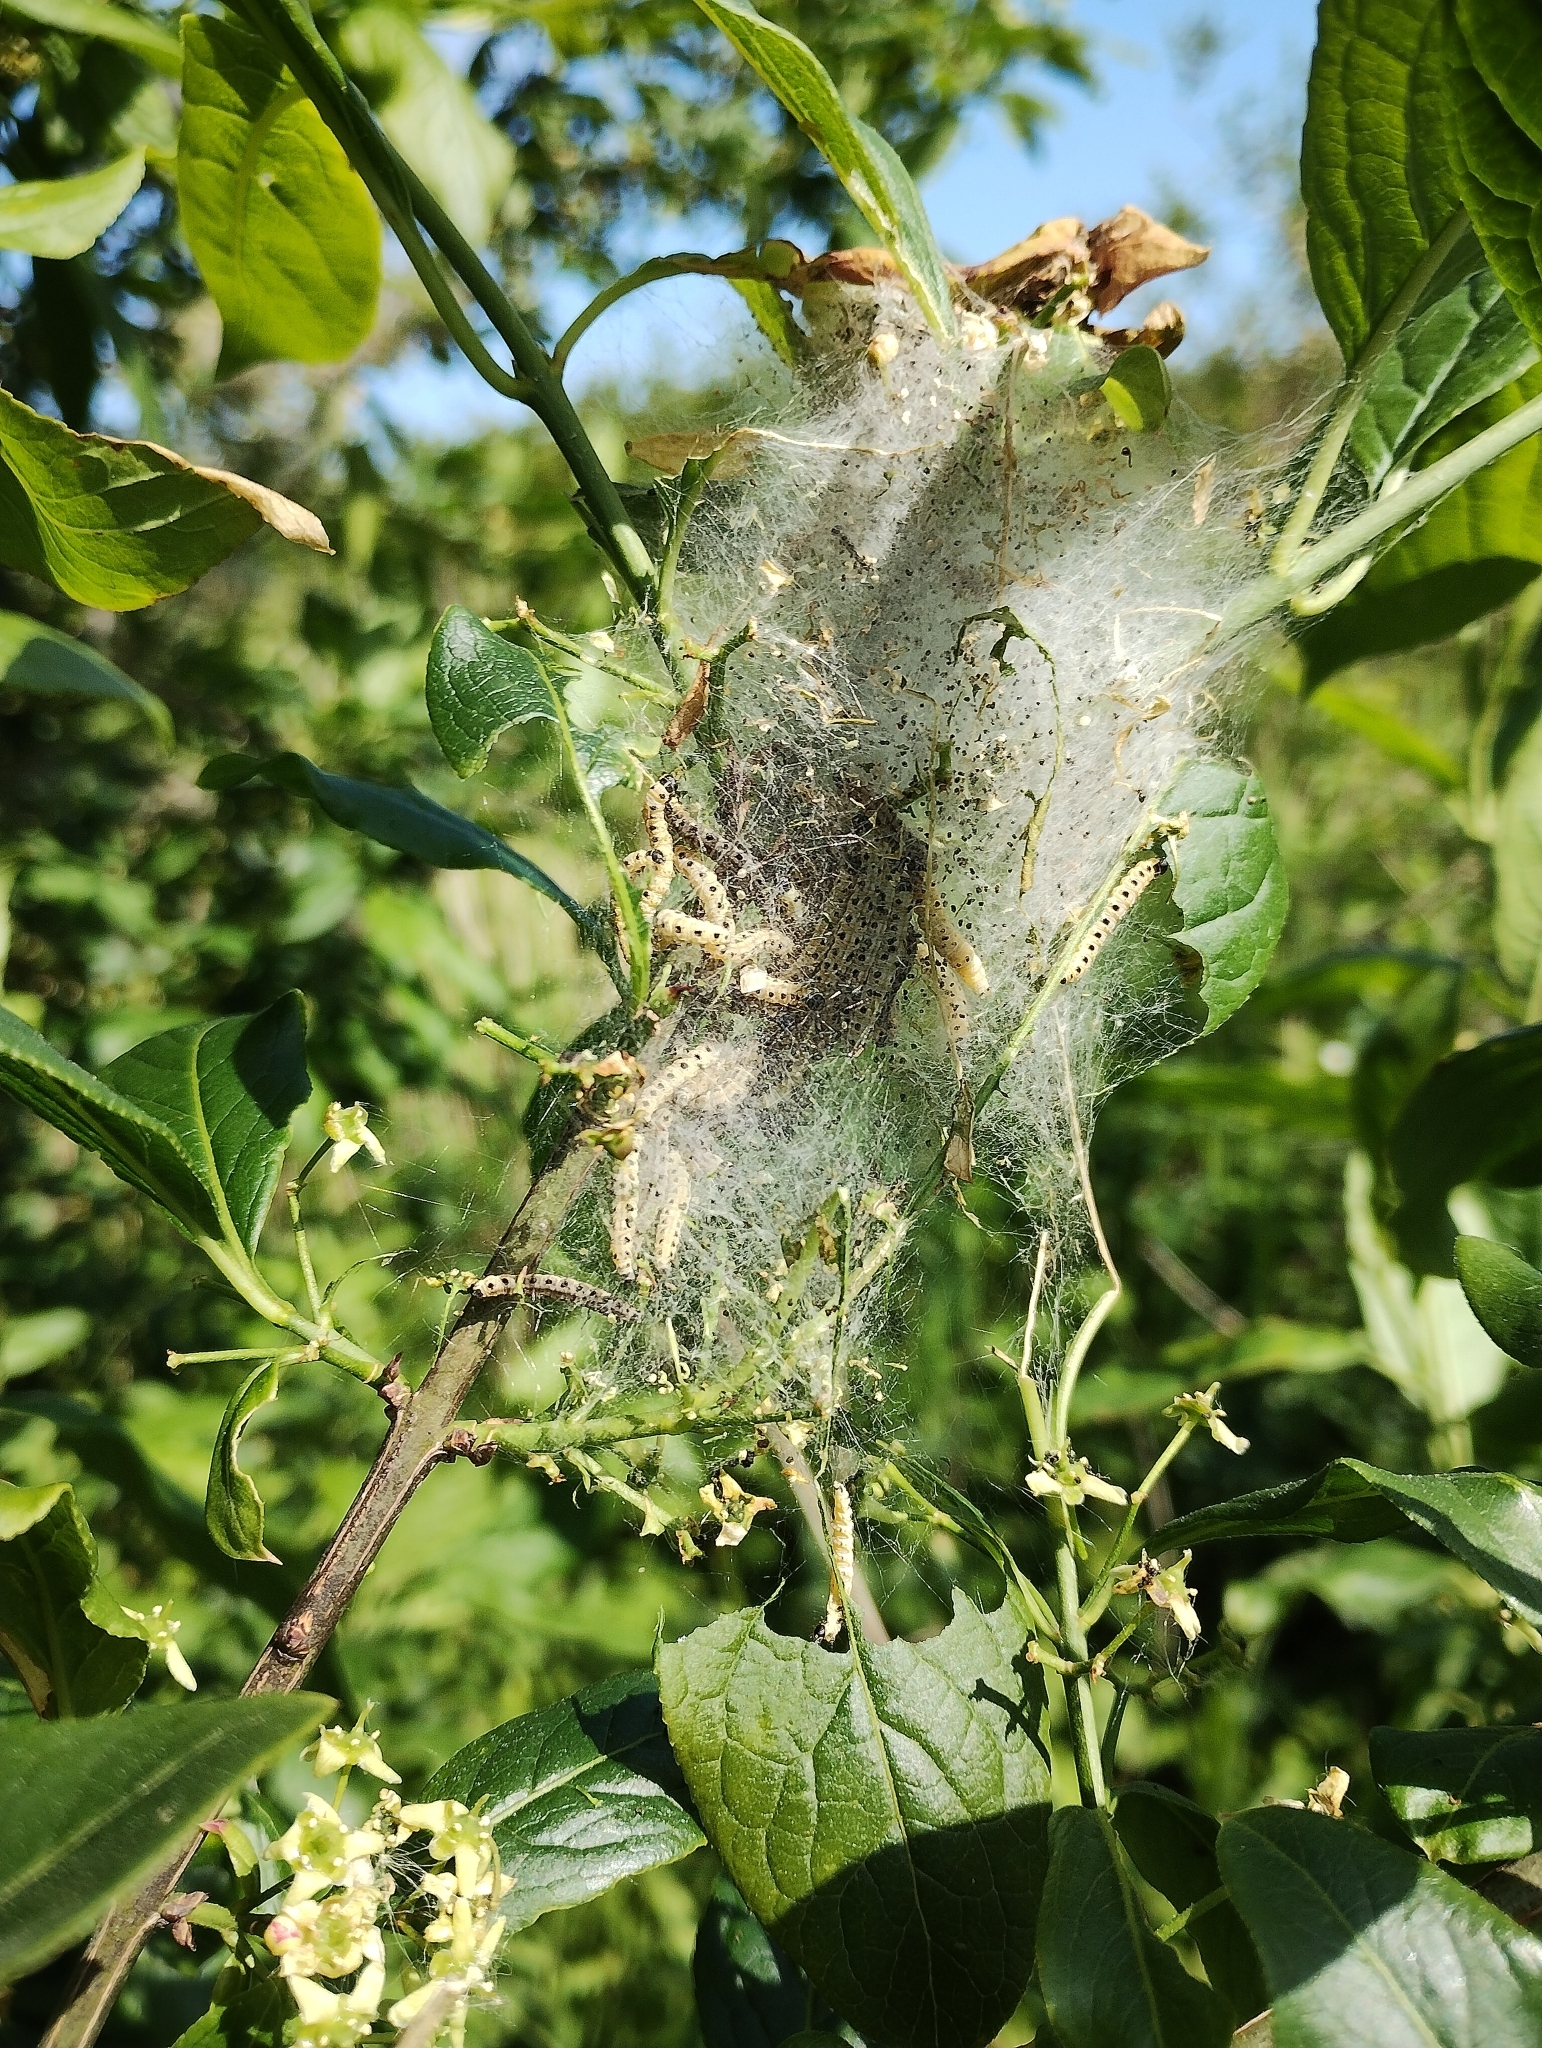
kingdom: Animalia
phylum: Arthropoda
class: Insecta
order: Lepidoptera
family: Yponomeutidae
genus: Yponomeuta
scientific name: Yponomeuta cagnagellus
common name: Spindle ermine
